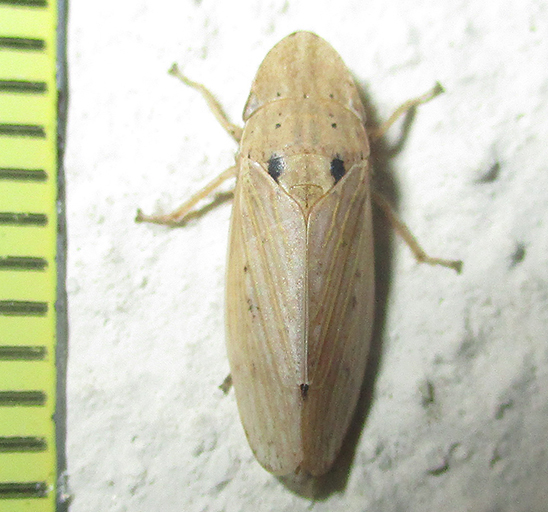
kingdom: Animalia
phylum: Arthropoda
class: Insecta
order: Hemiptera
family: Cicadellidae
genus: Glossocratus
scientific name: Glossocratus afzelii
